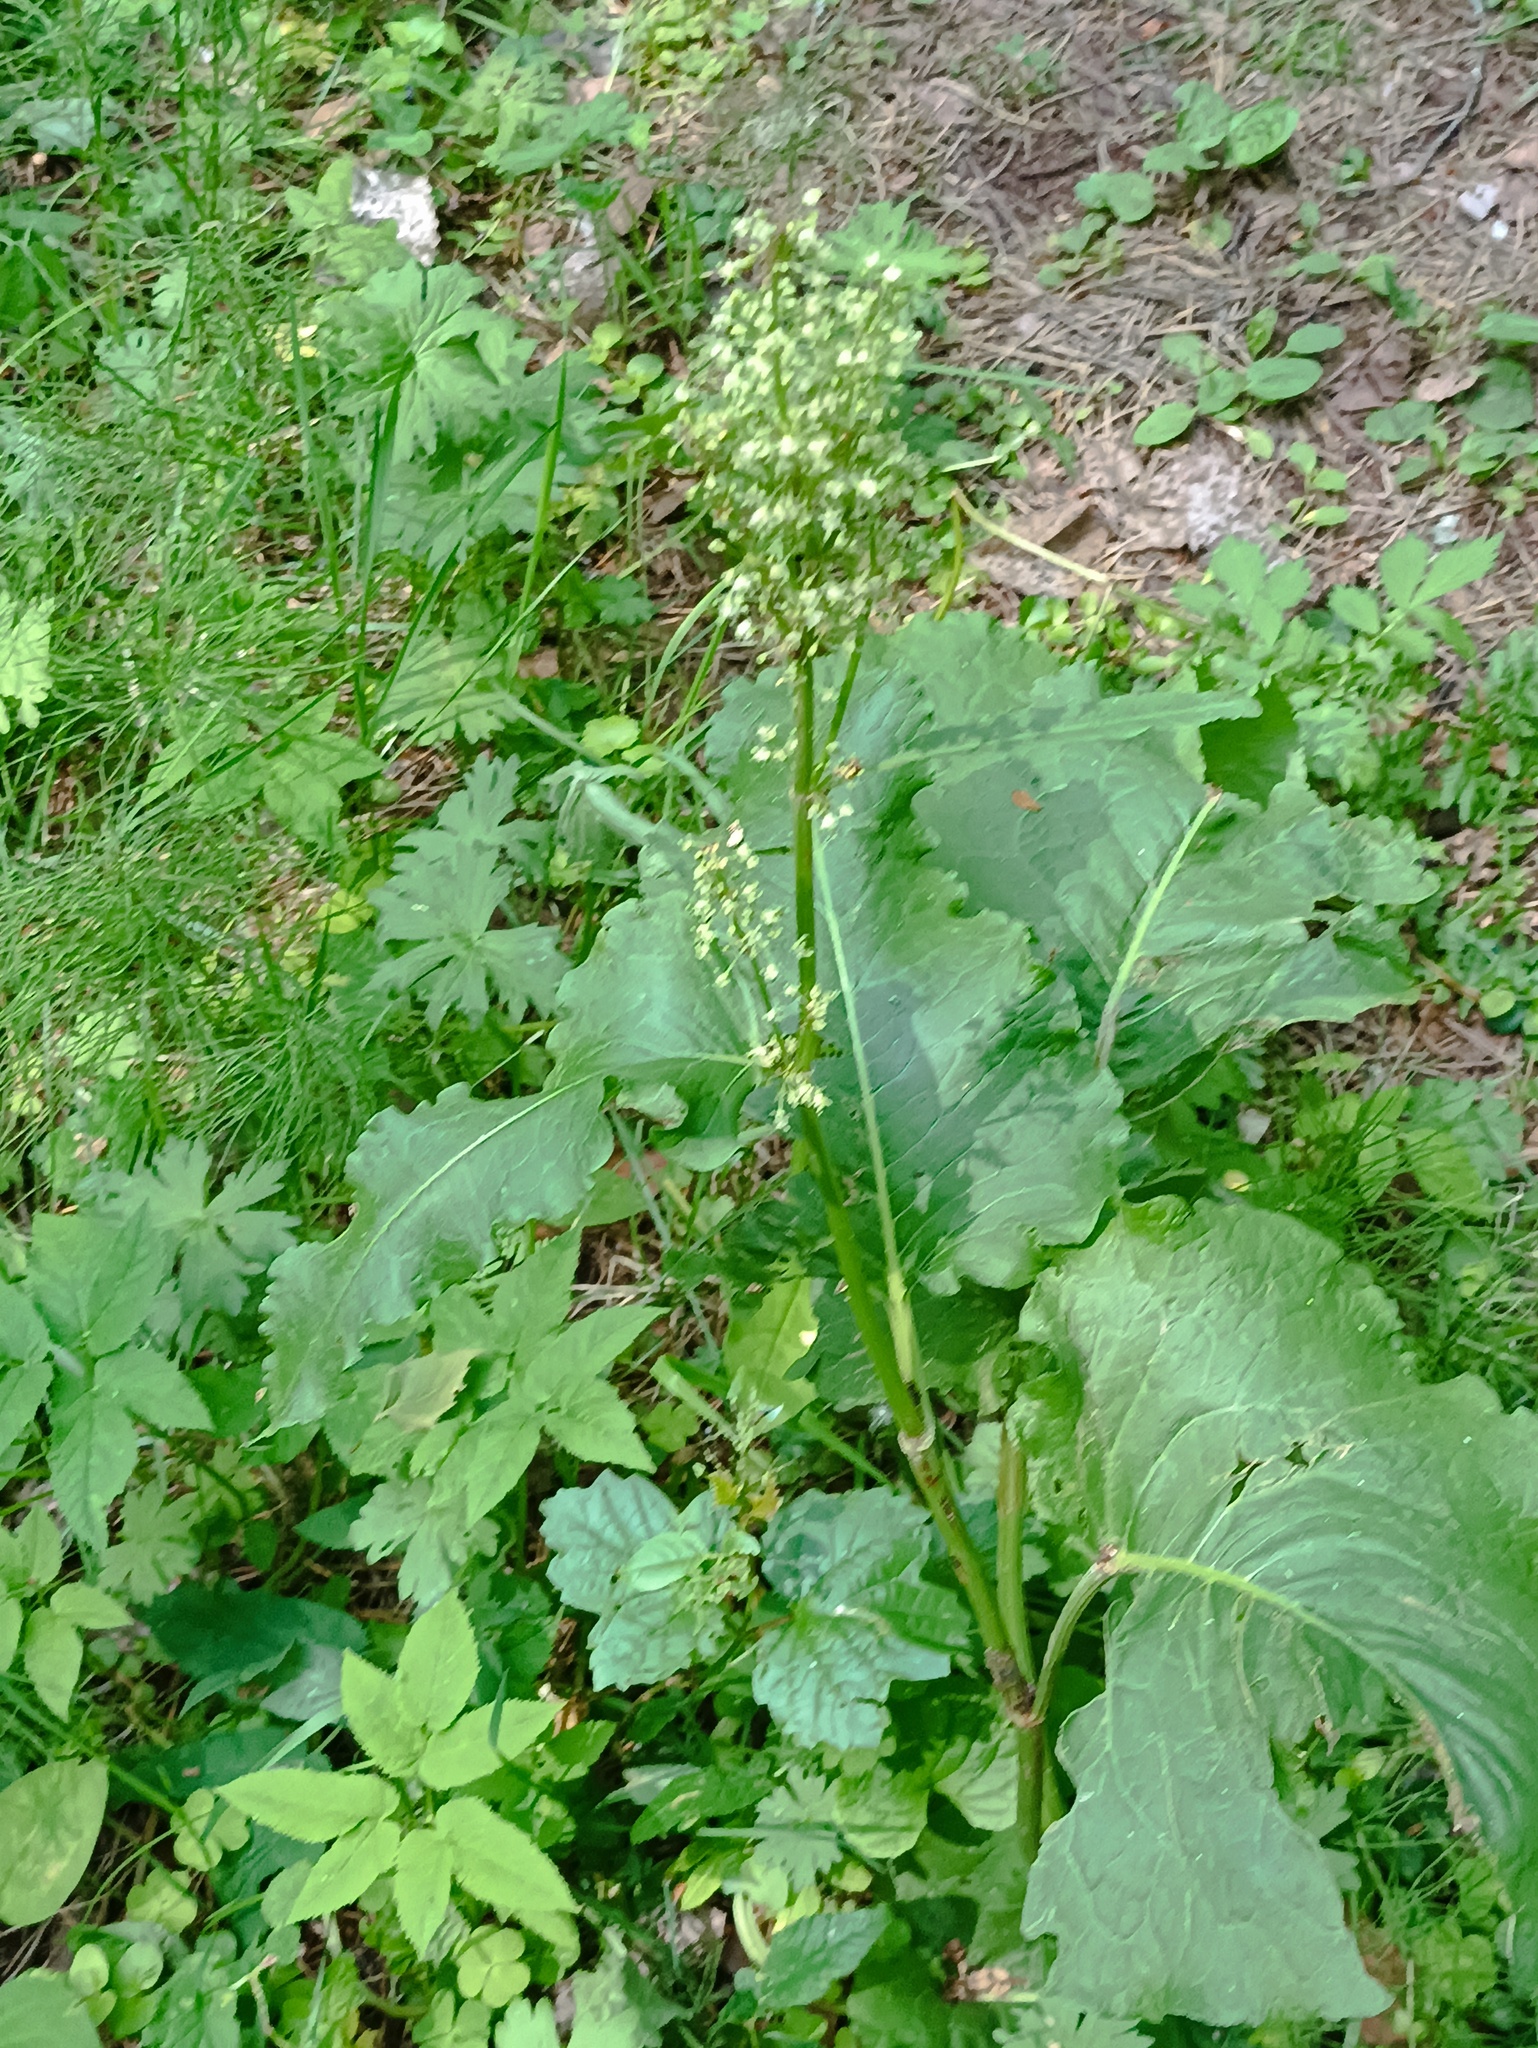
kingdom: Plantae
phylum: Tracheophyta
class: Magnoliopsida
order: Caryophyllales
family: Polygonaceae
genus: Rumex
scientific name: Rumex confertus
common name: Russian dock
